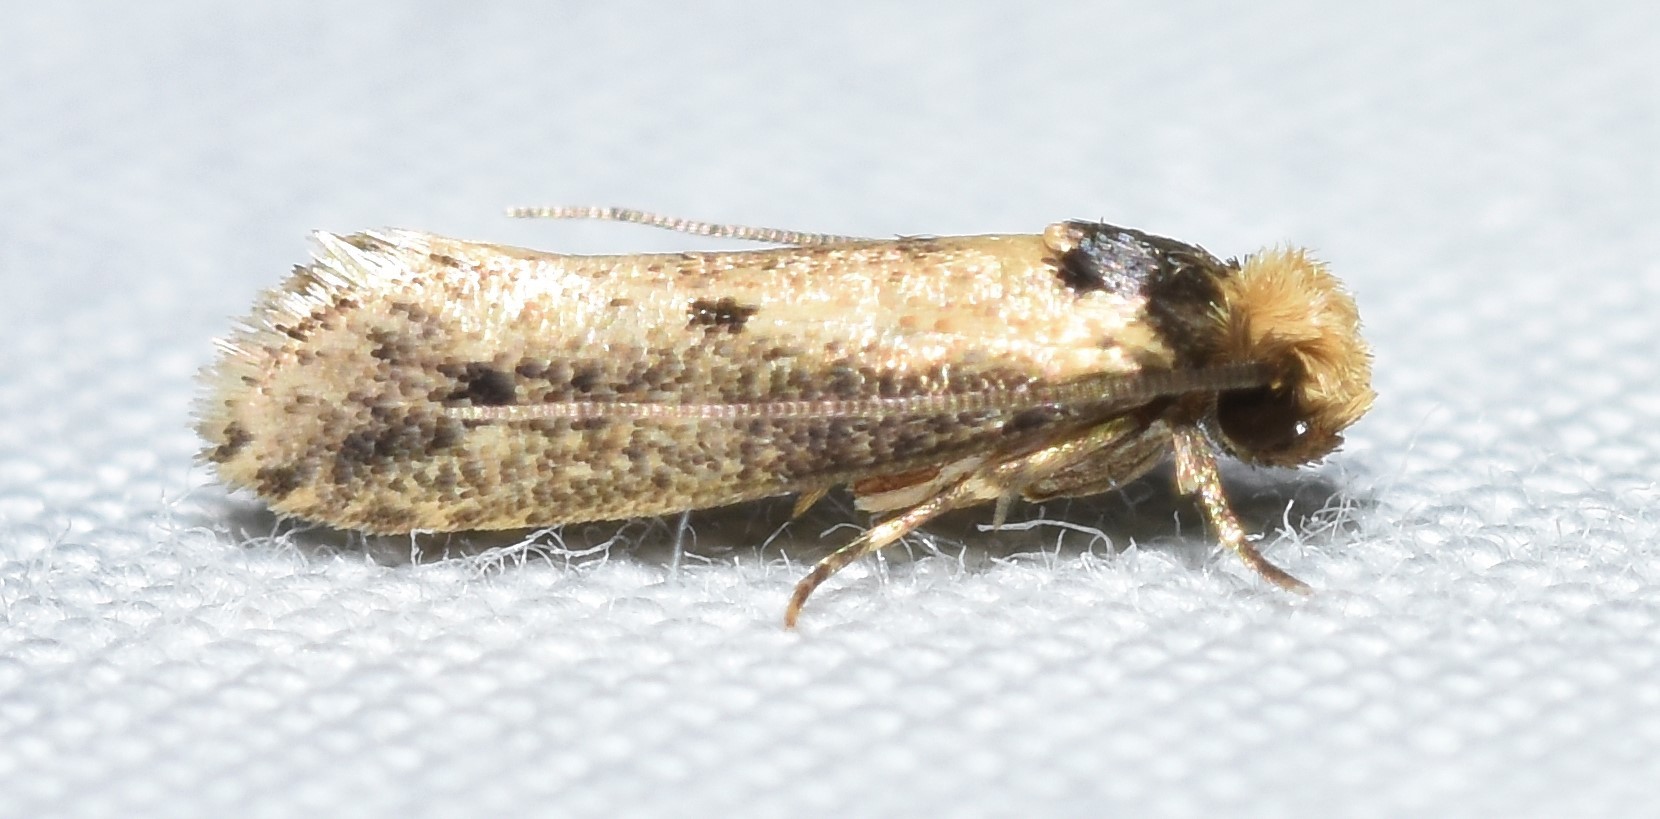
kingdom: Animalia
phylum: Arthropoda
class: Insecta
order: Lepidoptera
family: Tineidae
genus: Tinea
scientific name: Tinea apicimaculella
